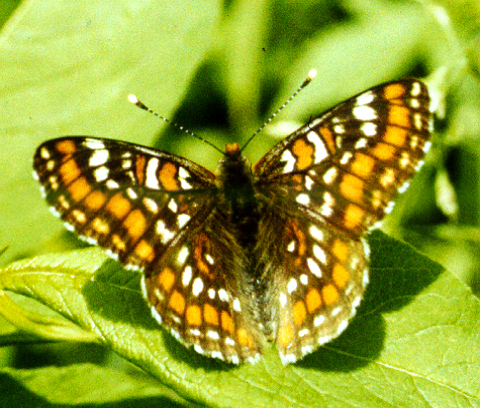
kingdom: Animalia
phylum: Arthropoda
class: Insecta
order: Lepidoptera
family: Nymphalidae
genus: Euphydryas
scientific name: Euphydryas maturna
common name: Scarce fritillary
